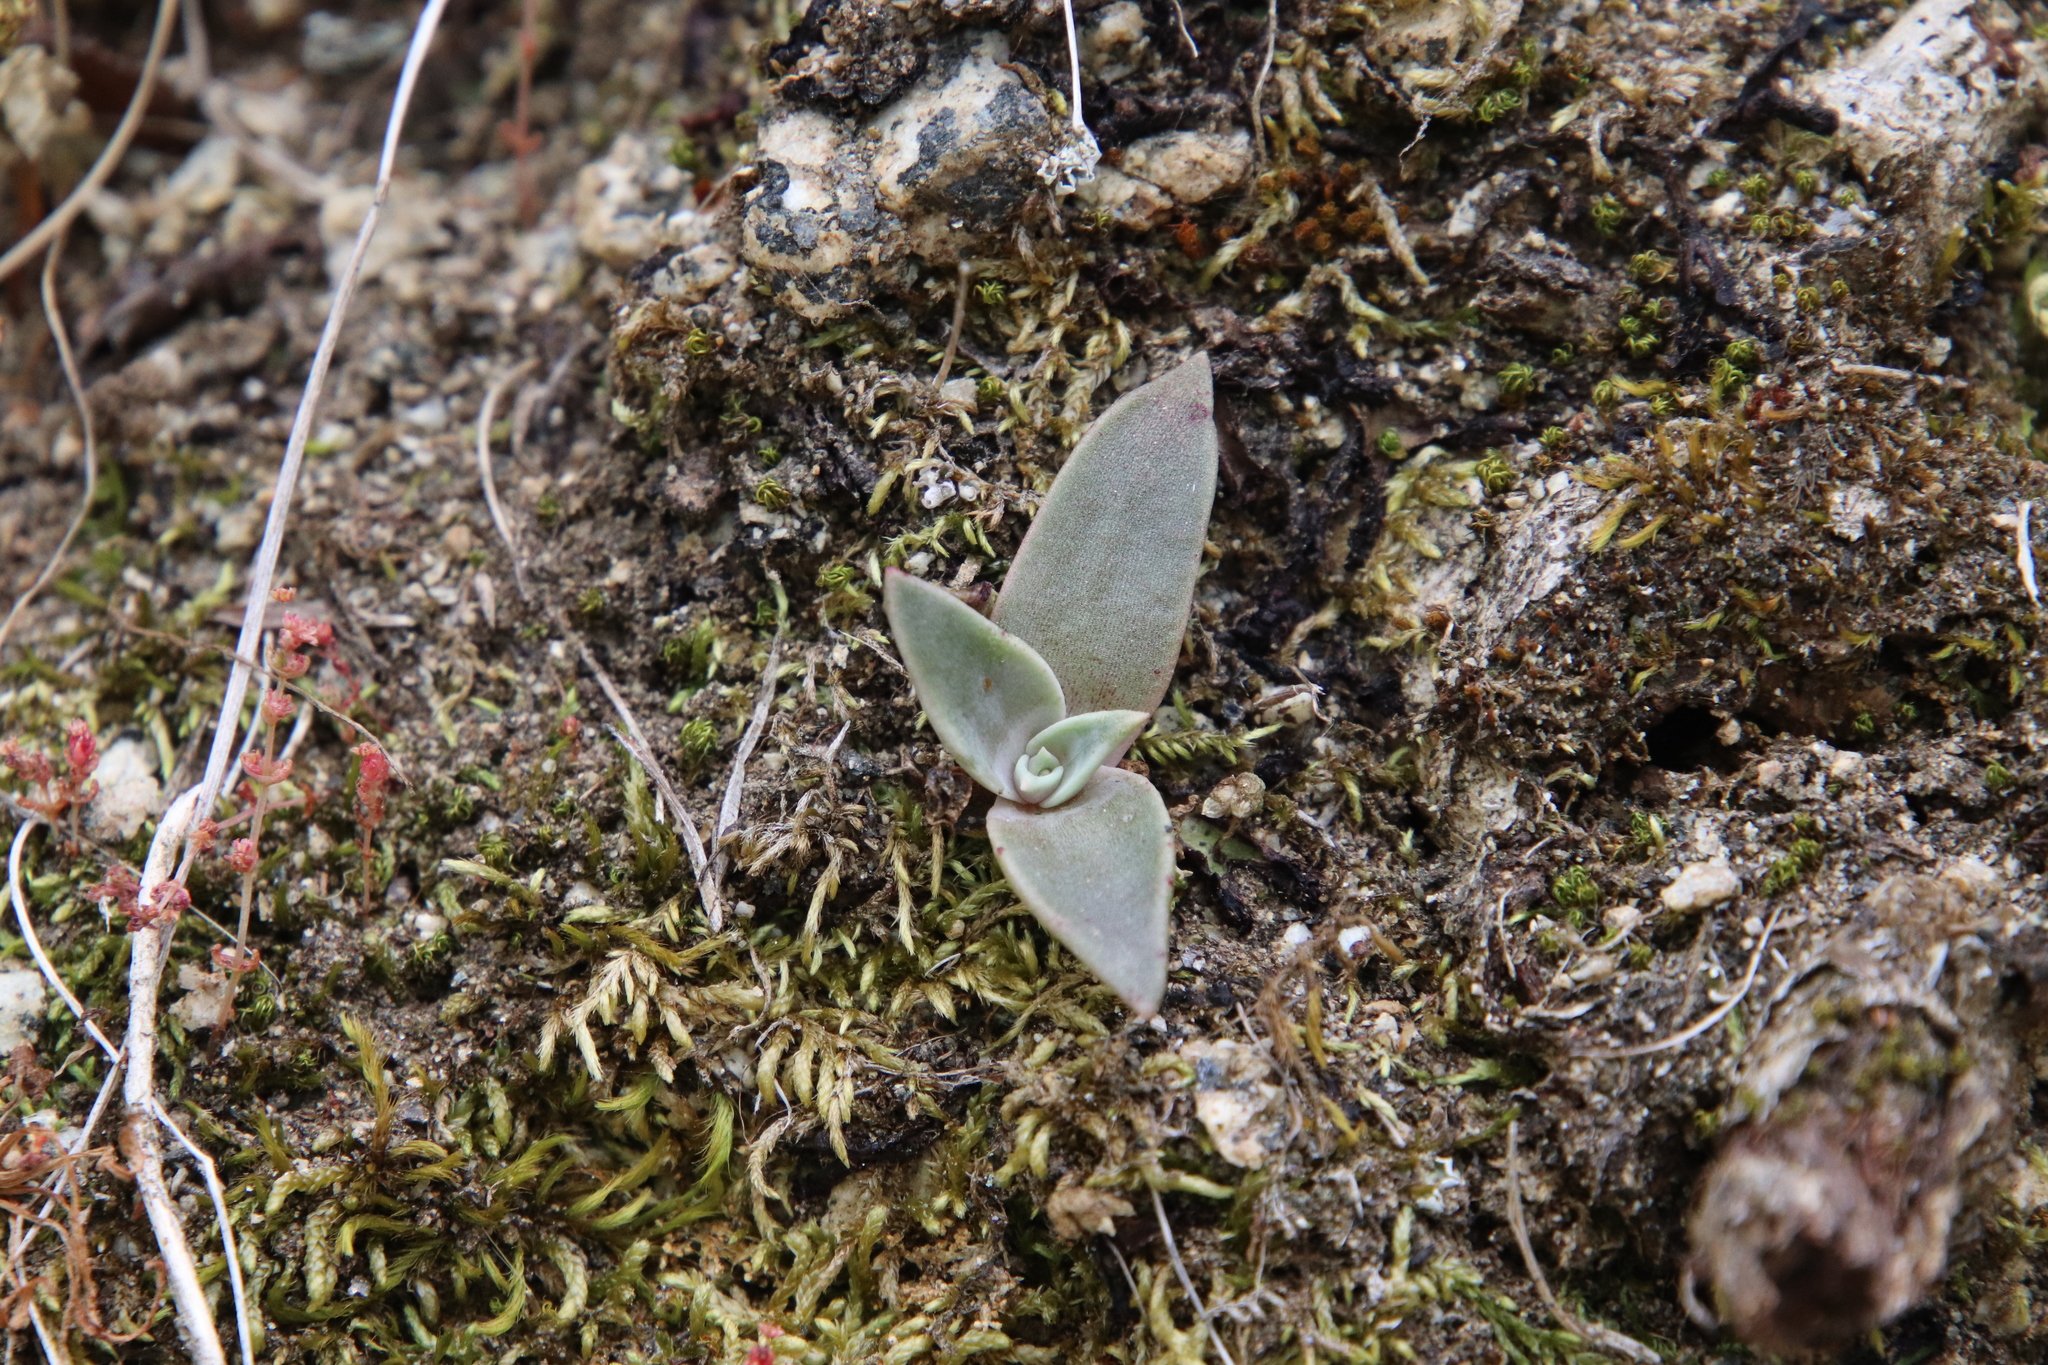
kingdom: Plantae
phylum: Tracheophyta
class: Magnoliopsida
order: Saxifragales
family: Crassulaceae
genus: Dudleya
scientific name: Dudleya lanceolata
